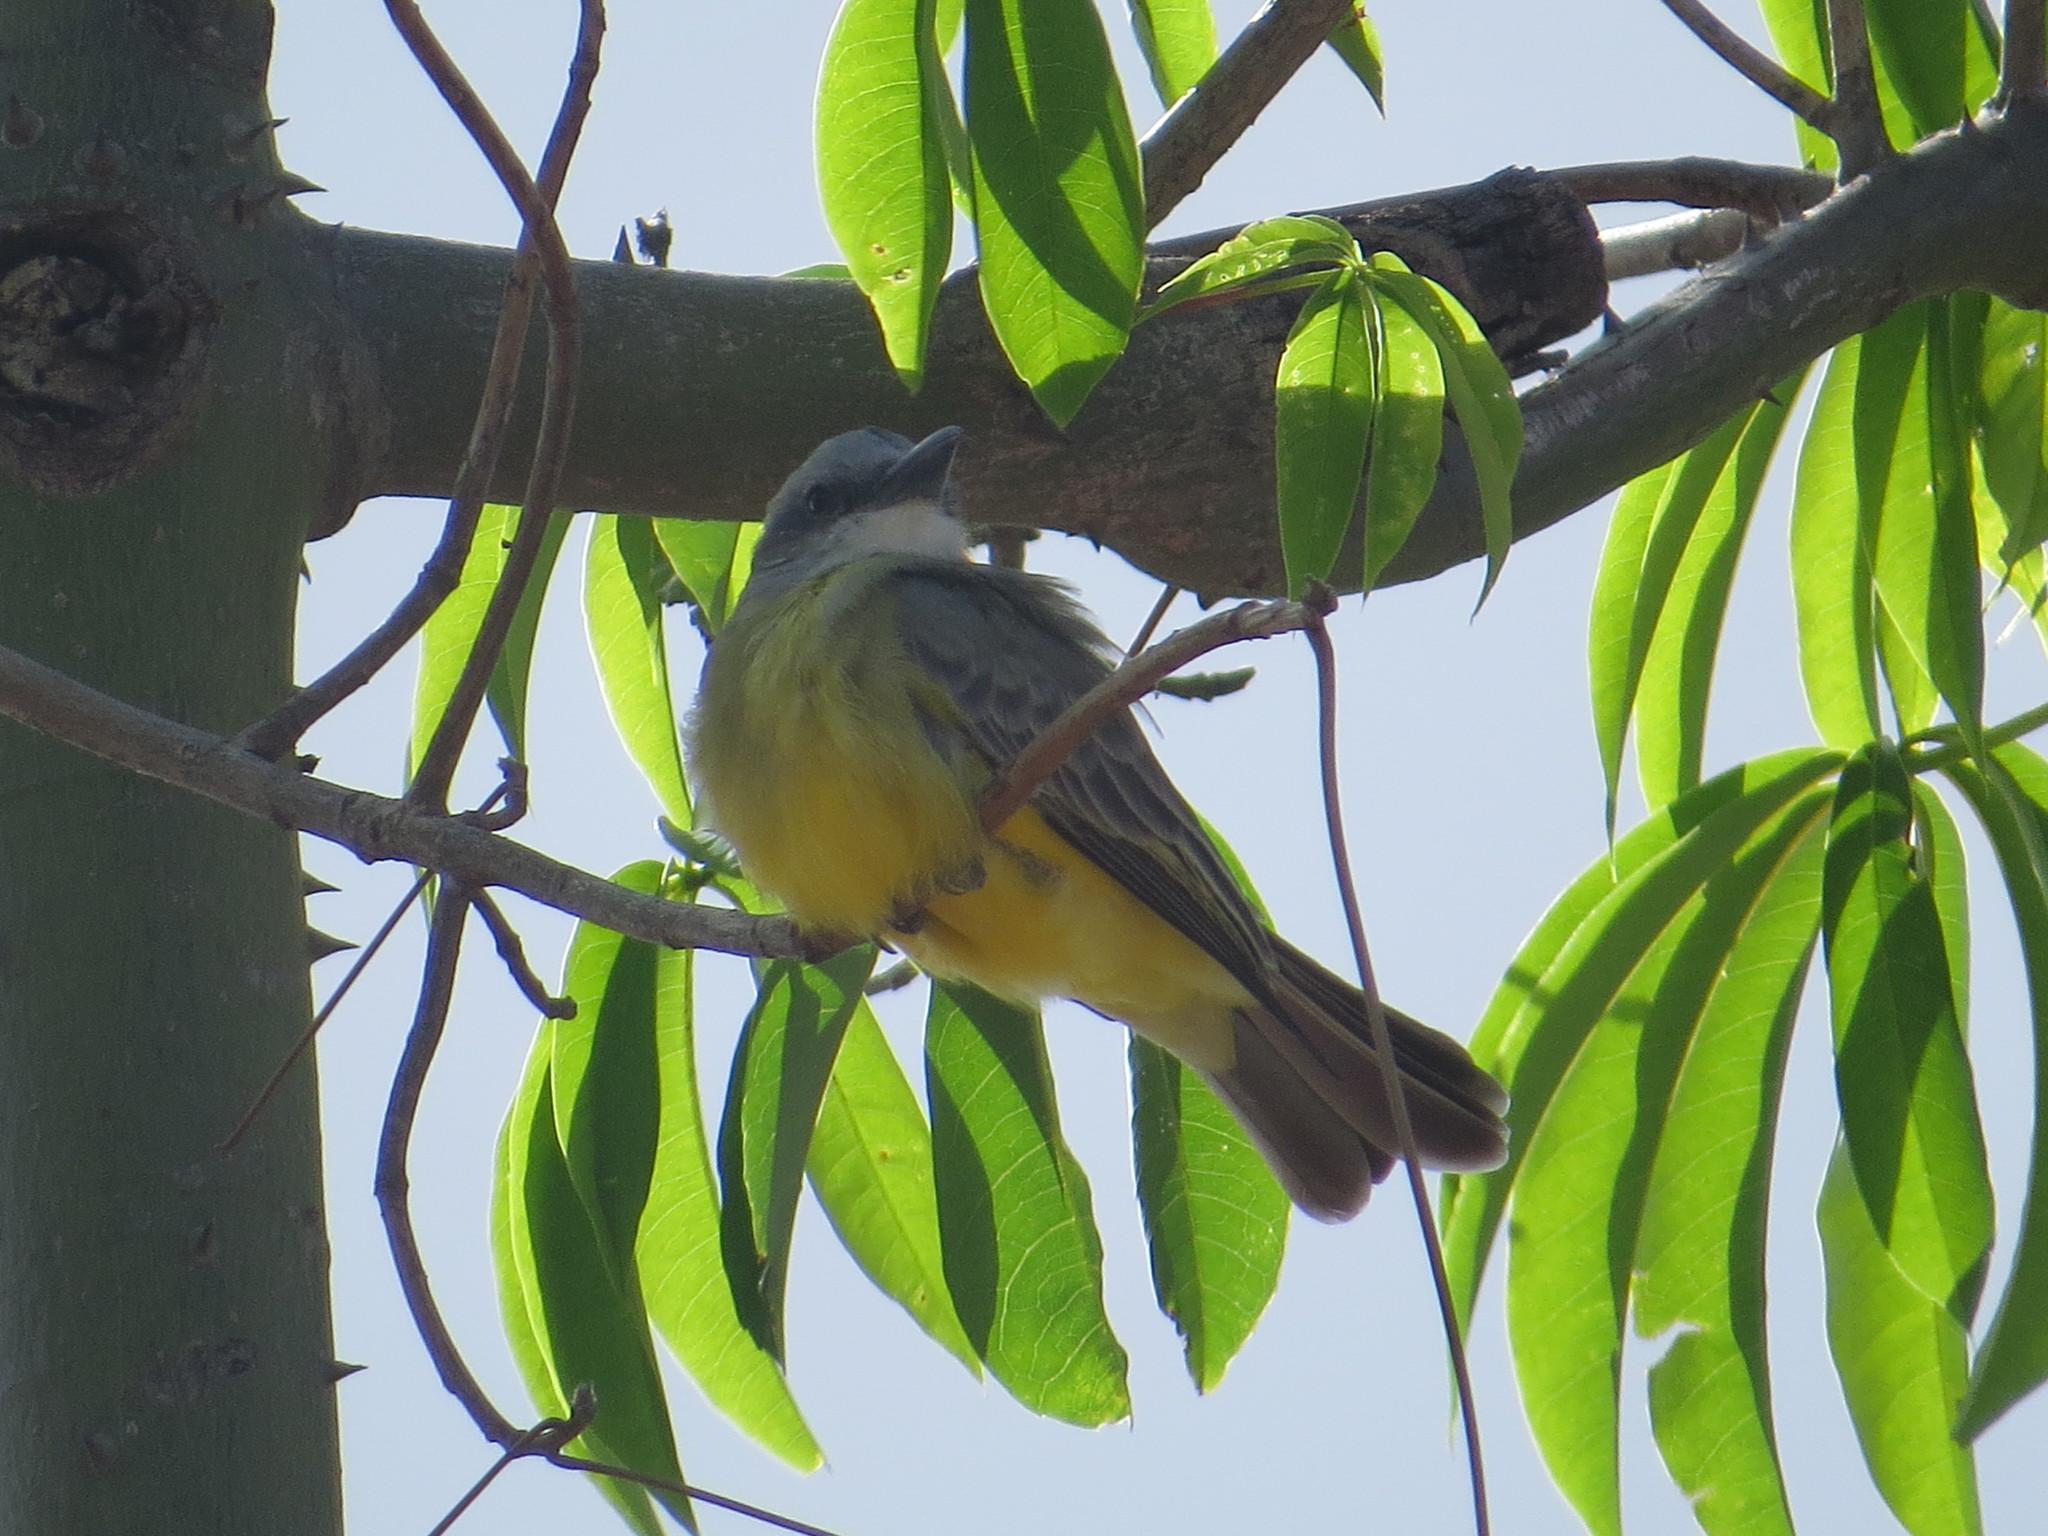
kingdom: Animalia
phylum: Chordata
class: Aves
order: Passeriformes
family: Tyrannidae
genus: Tyrannus
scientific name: Tyrannus melancholicus
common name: Tropical kingbird
